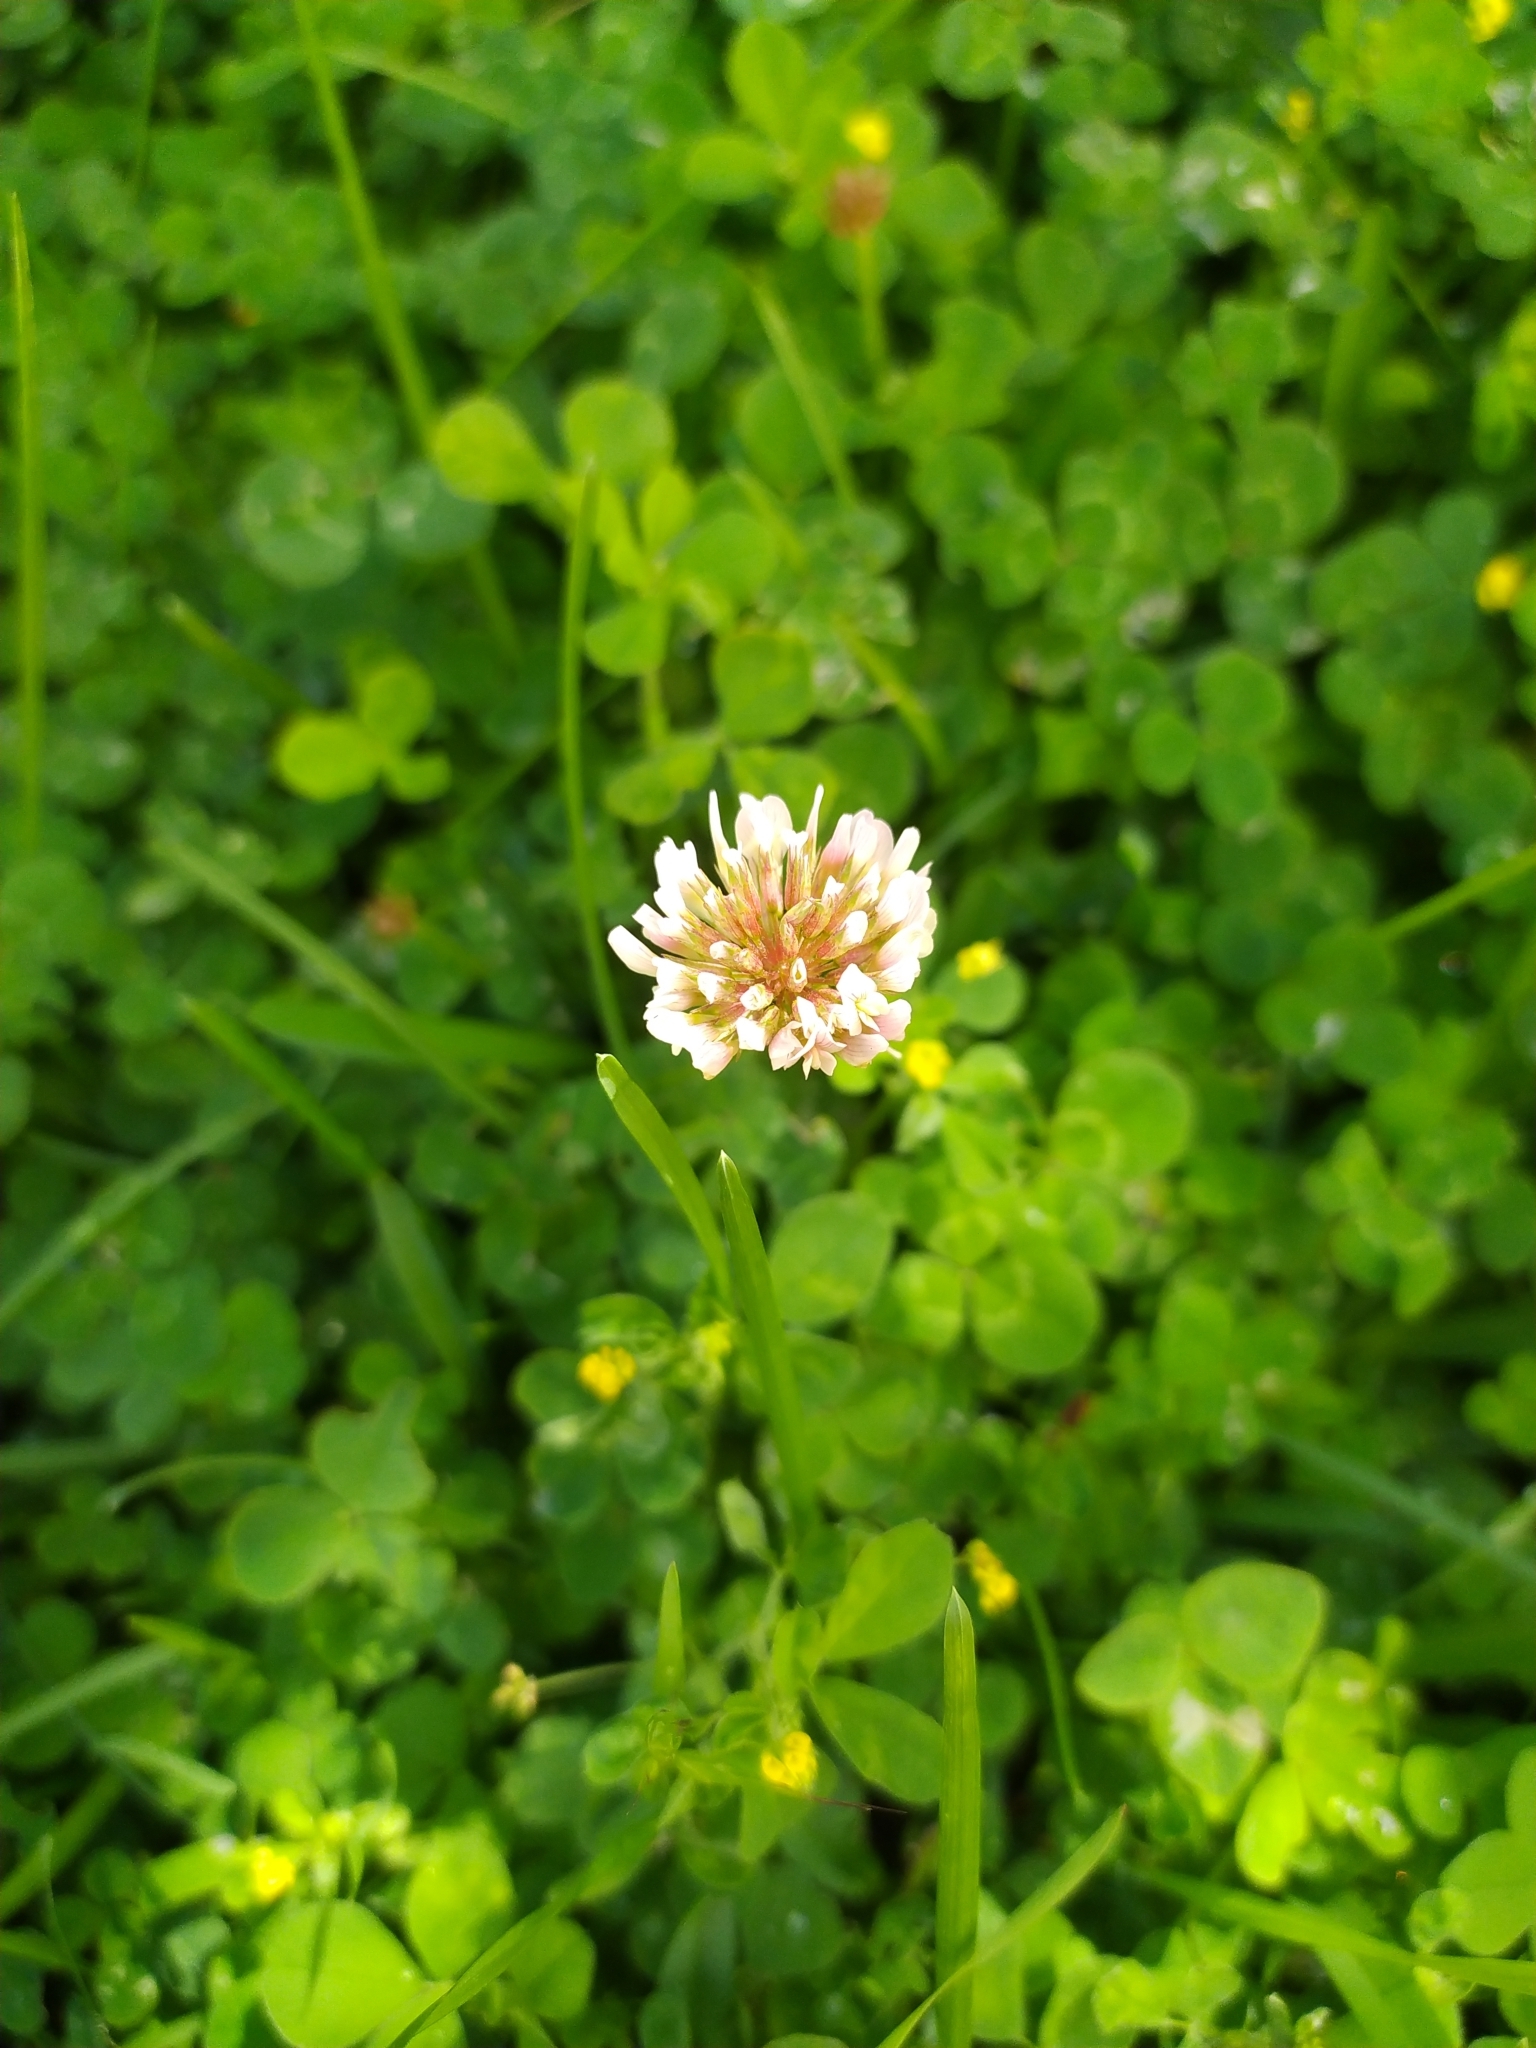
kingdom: Plantae
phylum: Tracheophyta
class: Magnoliopsida
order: Fabales
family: Fabaceae
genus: Trifolium
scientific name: Trifolium repens
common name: White clover
